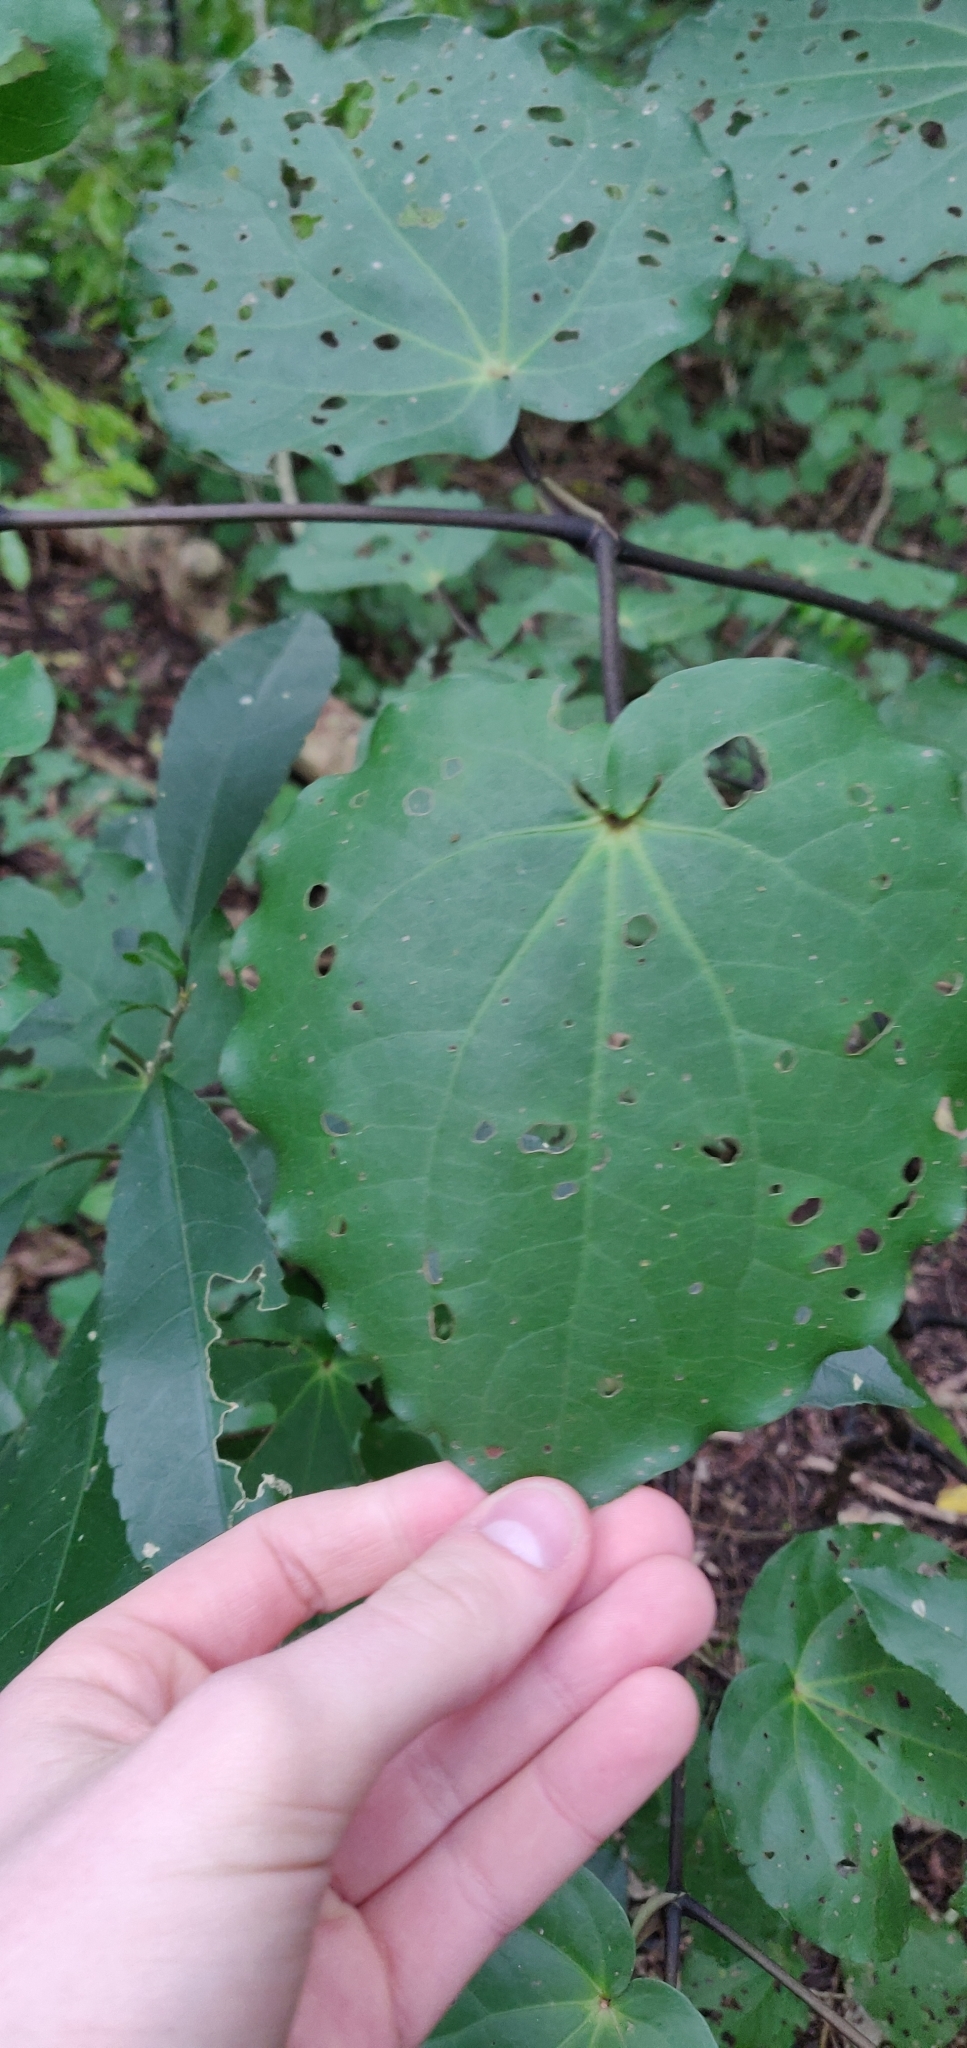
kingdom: Plantae
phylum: Tracheophyta
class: Magnoliopsida
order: Piperales
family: Piperaceae
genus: Macropiper
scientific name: Macropiper excelsum
